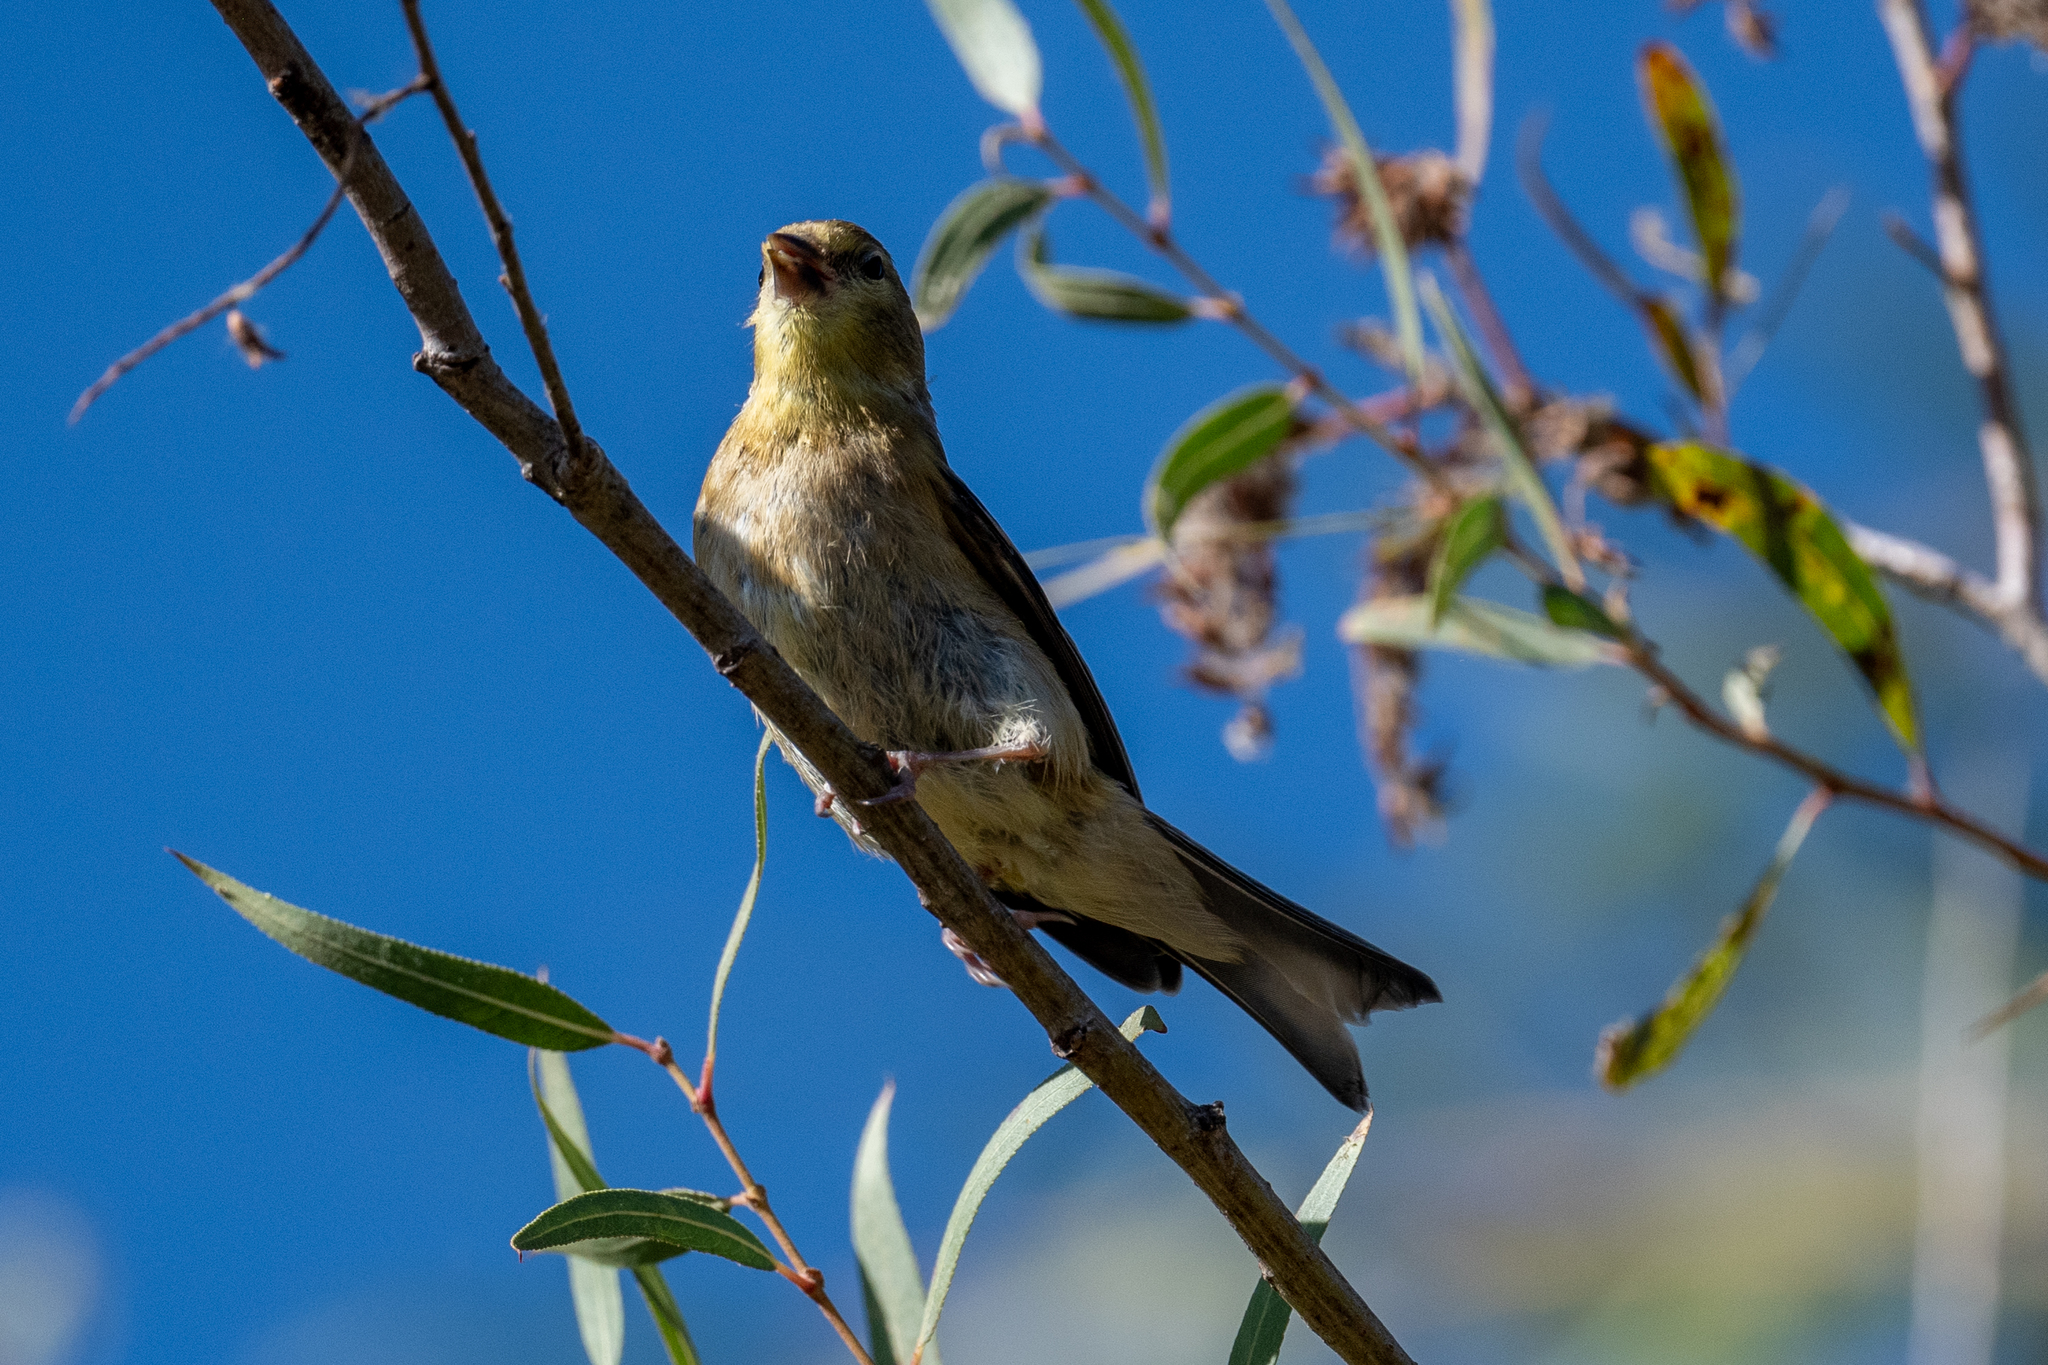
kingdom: Animalia
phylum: Chordata
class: Aves
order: Passeriformes
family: Fringillidae
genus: Spinus
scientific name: Spinus tristis
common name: American goldfinch
